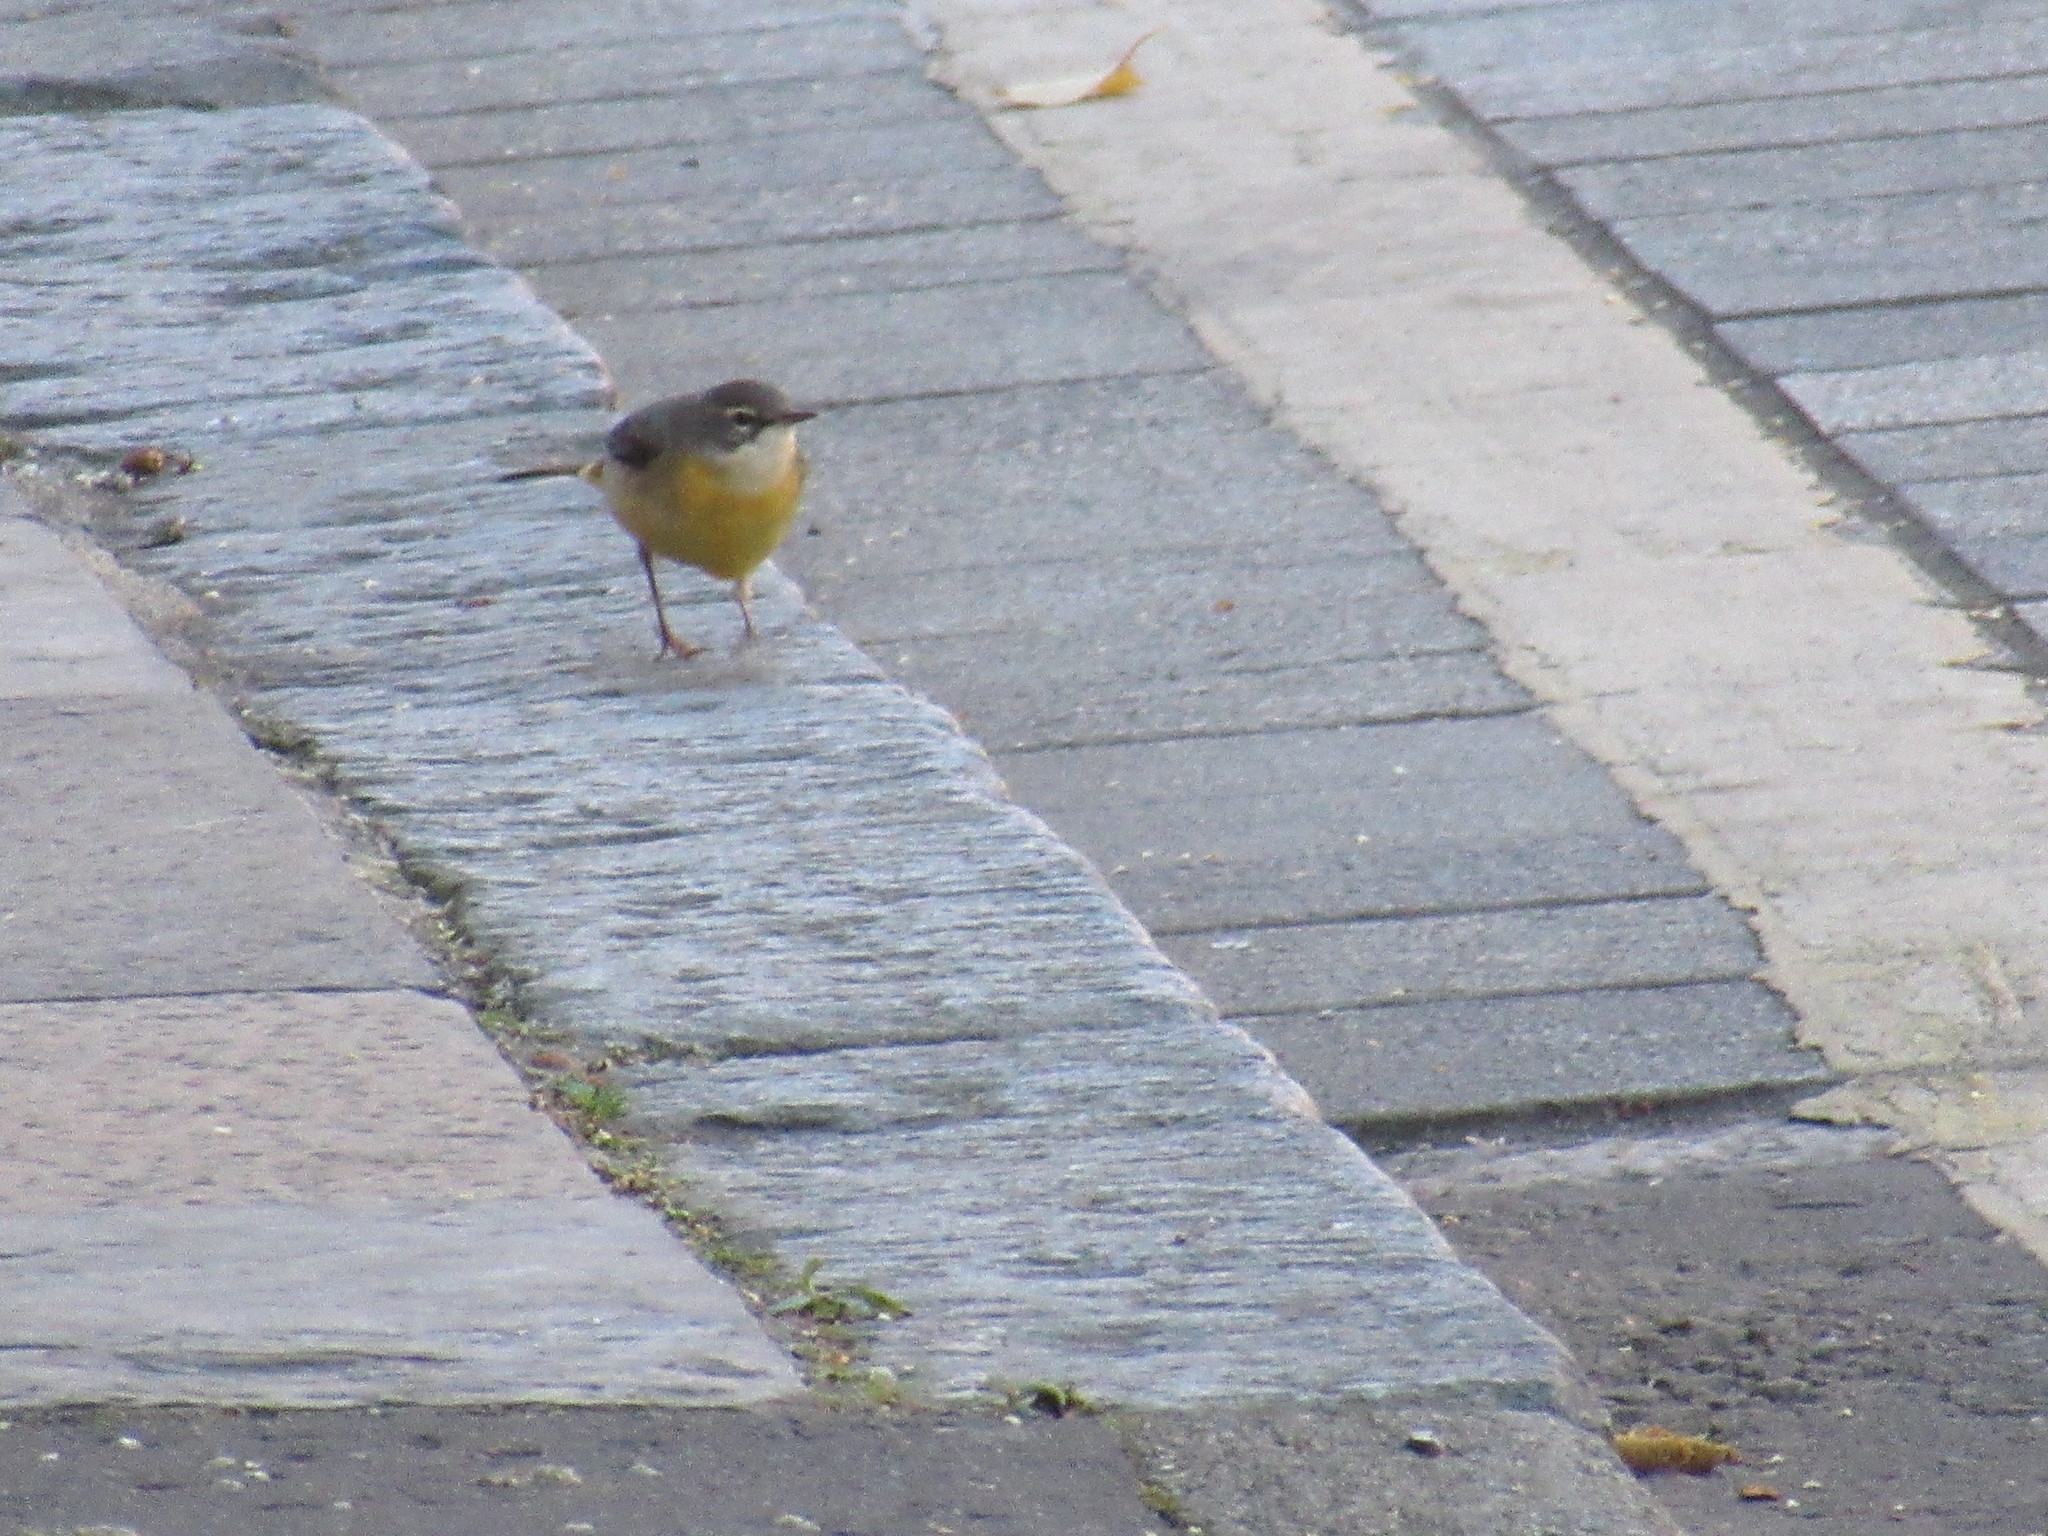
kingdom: Animalia
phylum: Chordata
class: Aves
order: Passeriformes
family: Motacillidae
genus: Motacilla
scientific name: Motacilla cinerea
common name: Grey wagtail
